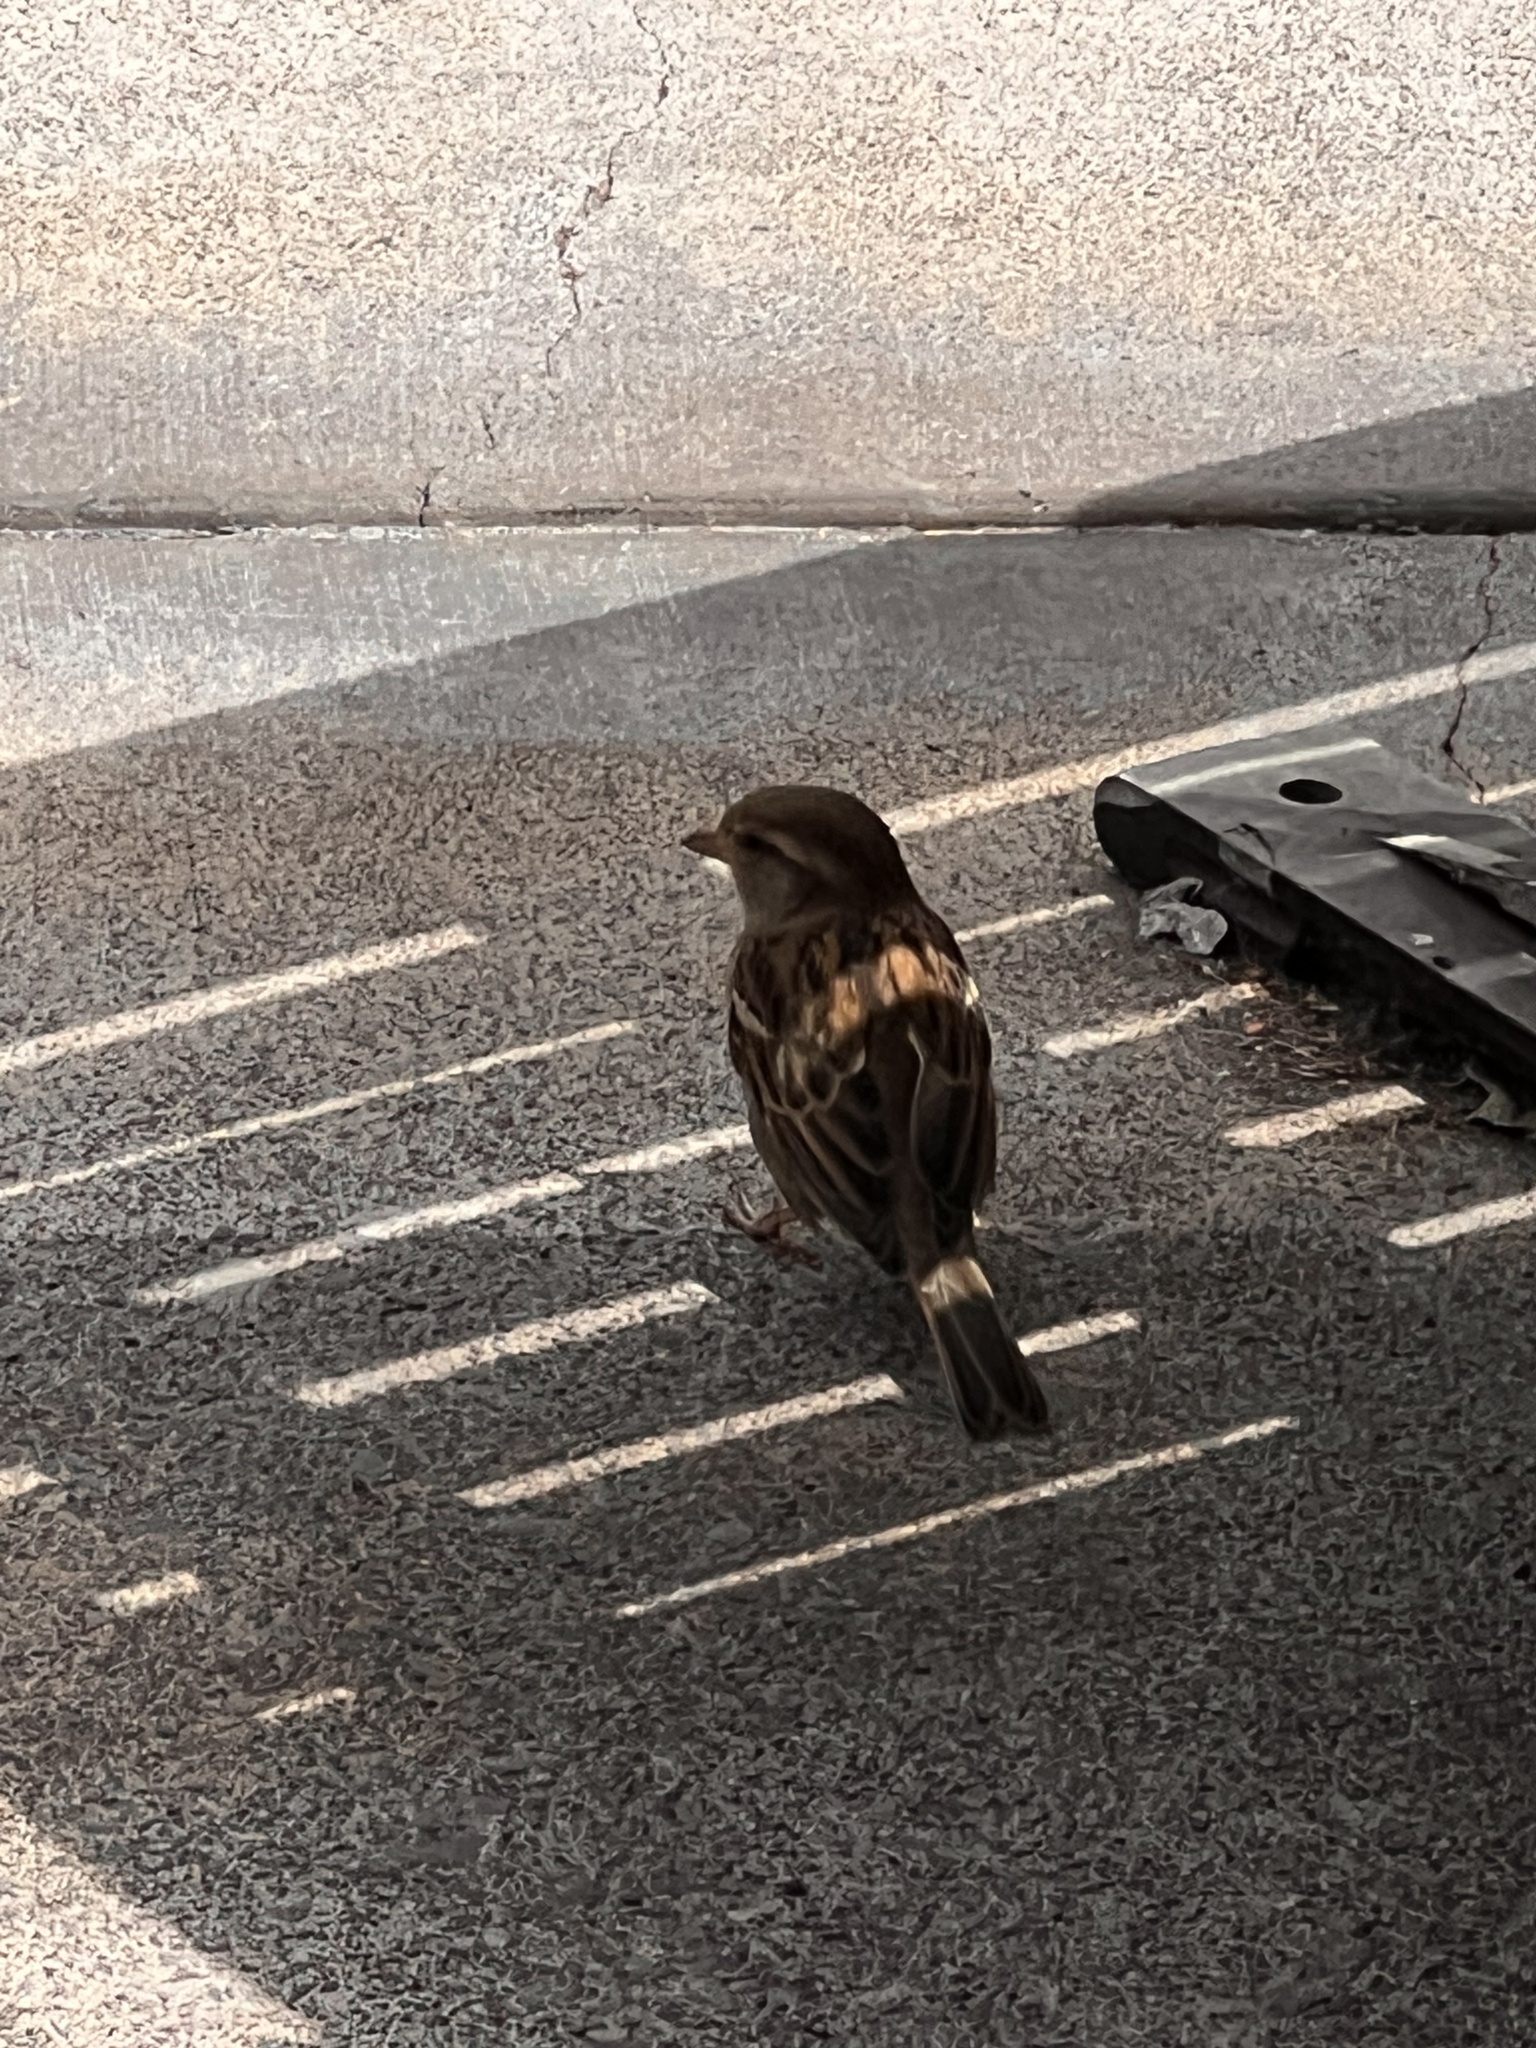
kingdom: Animalia
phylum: Chordata
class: Aves
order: Passeriformes
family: Passeridae
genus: Passer
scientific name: Passer domesticus
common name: House sparrow
